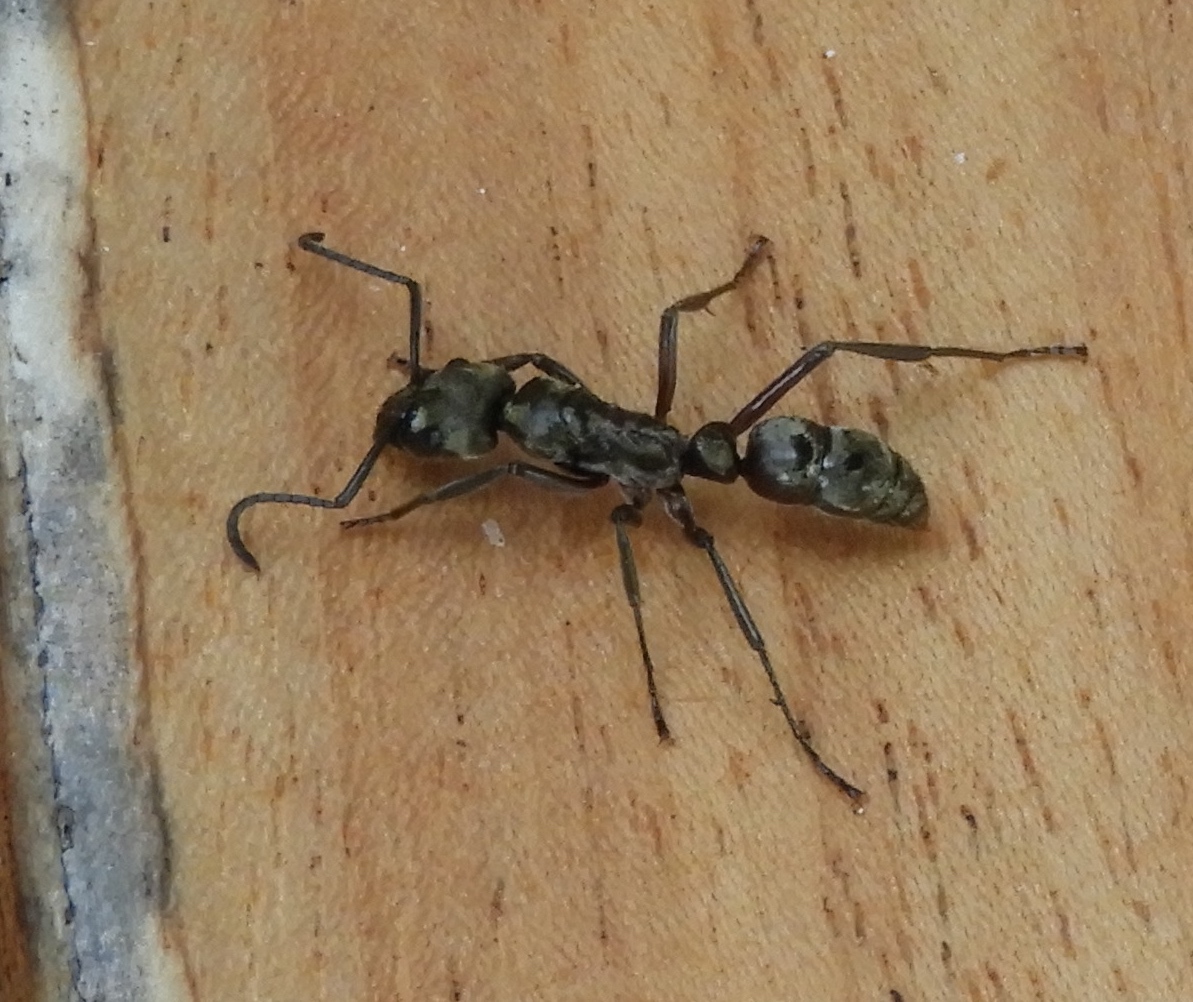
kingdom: Animalia
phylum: Arthropoda
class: Insecta
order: Hymenoptera
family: Formicidae
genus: Pachycondyla
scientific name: Pachycondyla villosa
